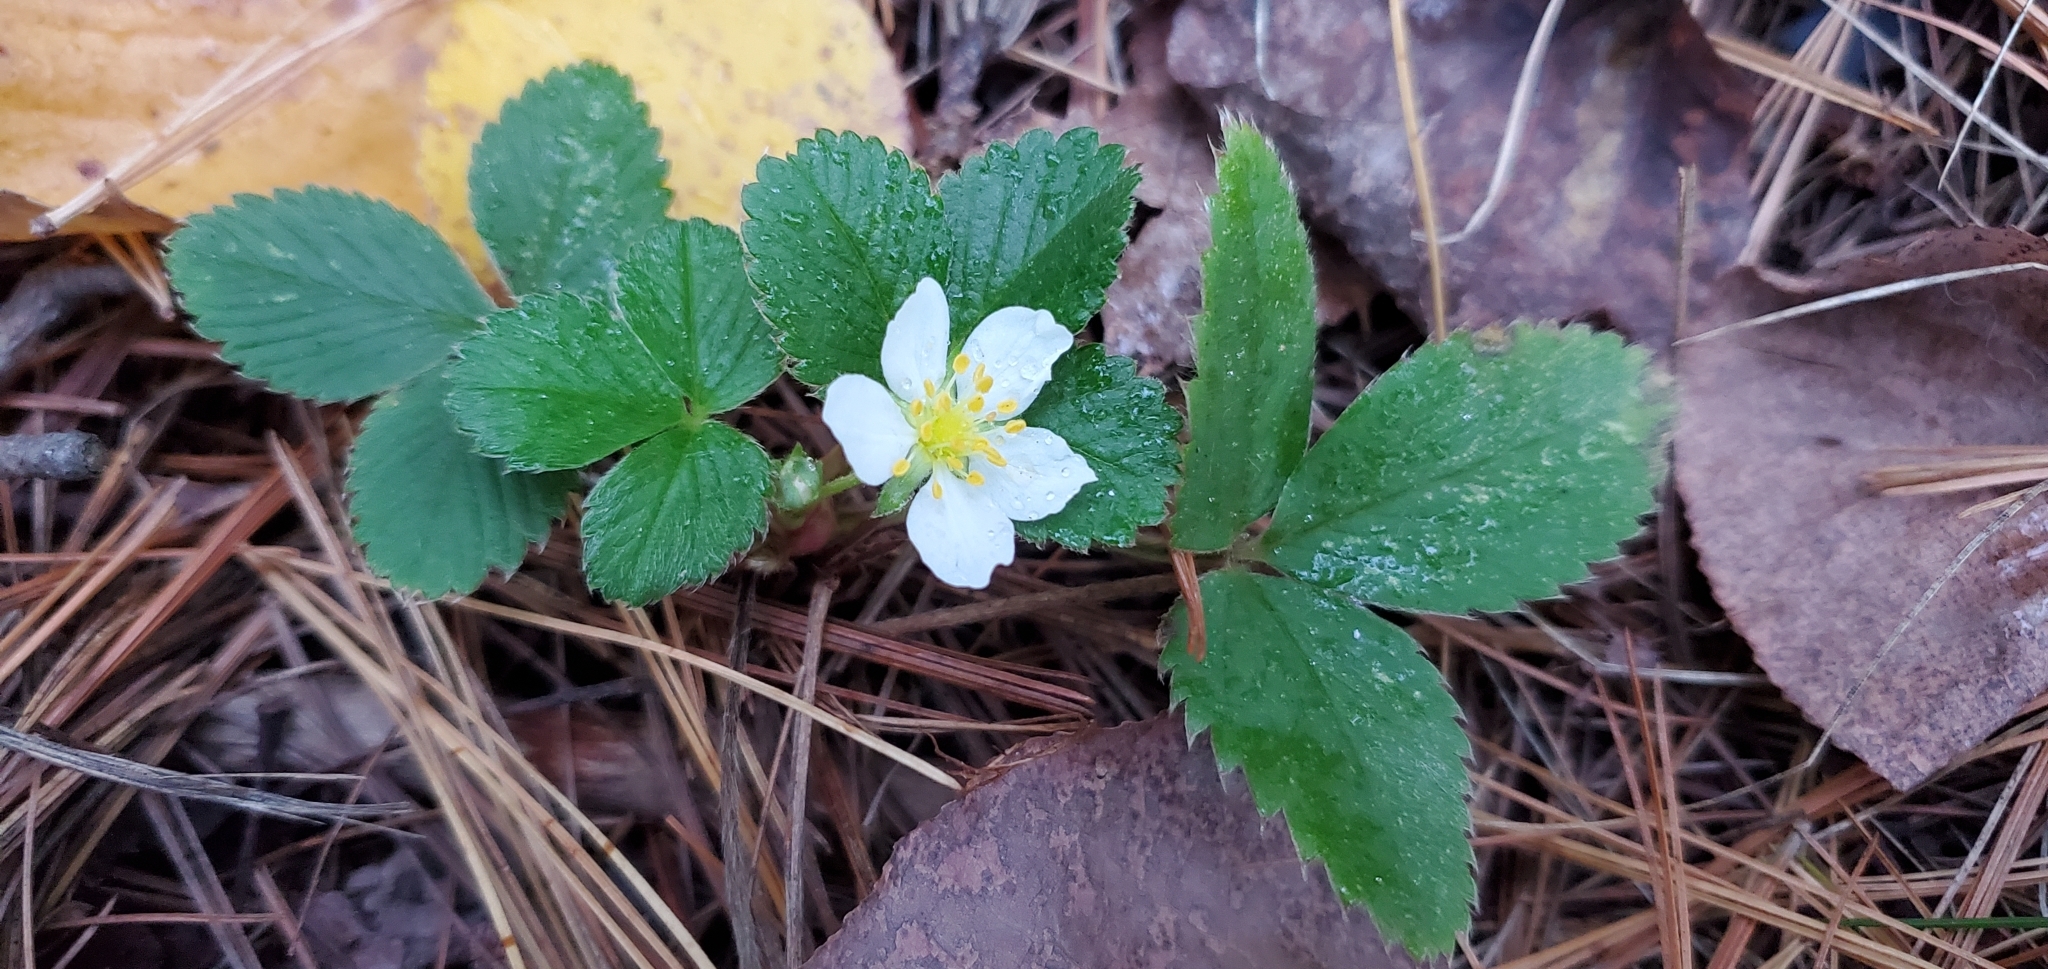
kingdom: Plantae
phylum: Tracheophyta
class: Magnoliopsida
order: Rosales
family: Rosaceae
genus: Fragaria
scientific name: Fragaria virginiana
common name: Thickleaved wild strawberry
